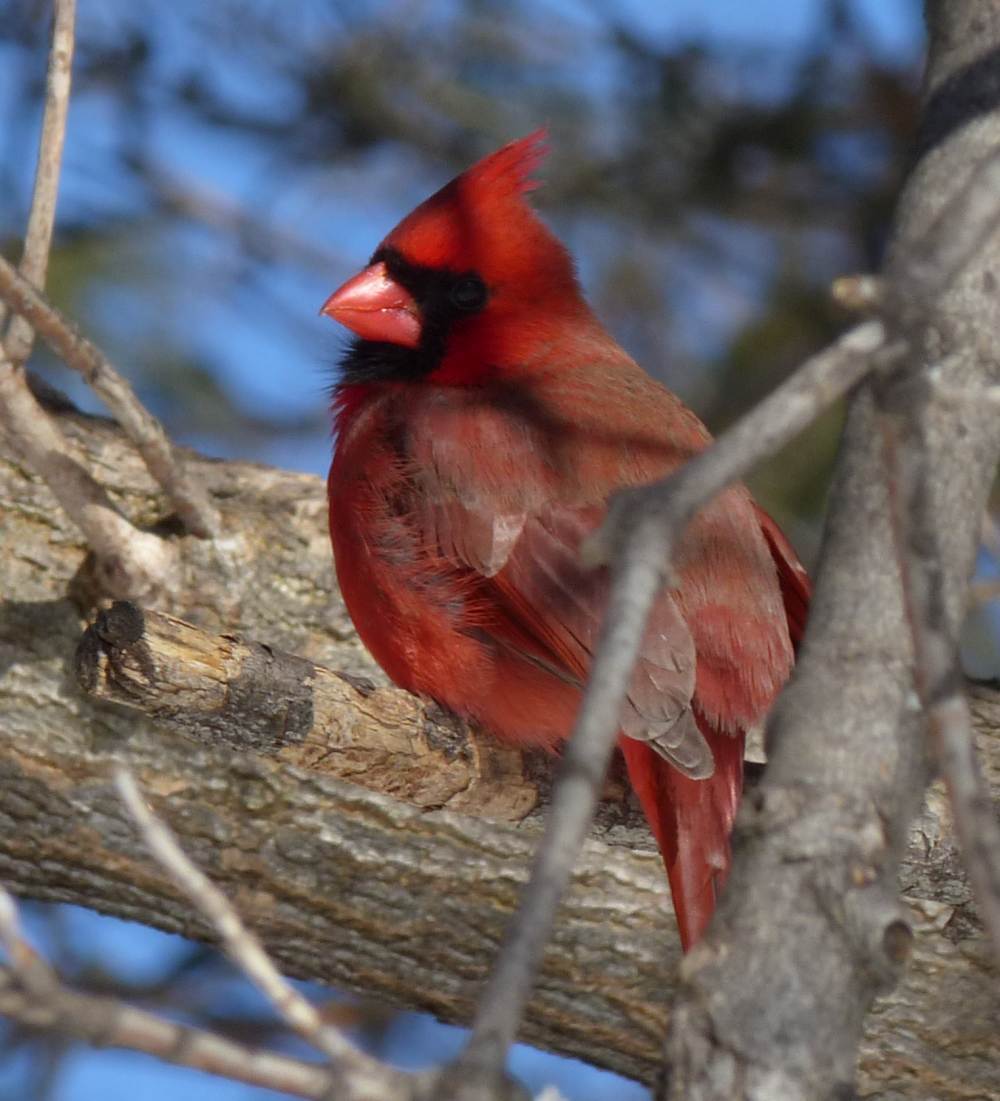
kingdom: Animalia
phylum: Chordata
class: Aves
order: Passeriformes
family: Cardinalidae
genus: Cardinalis
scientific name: Cardinalis cardinalis
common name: Northern cardinal
